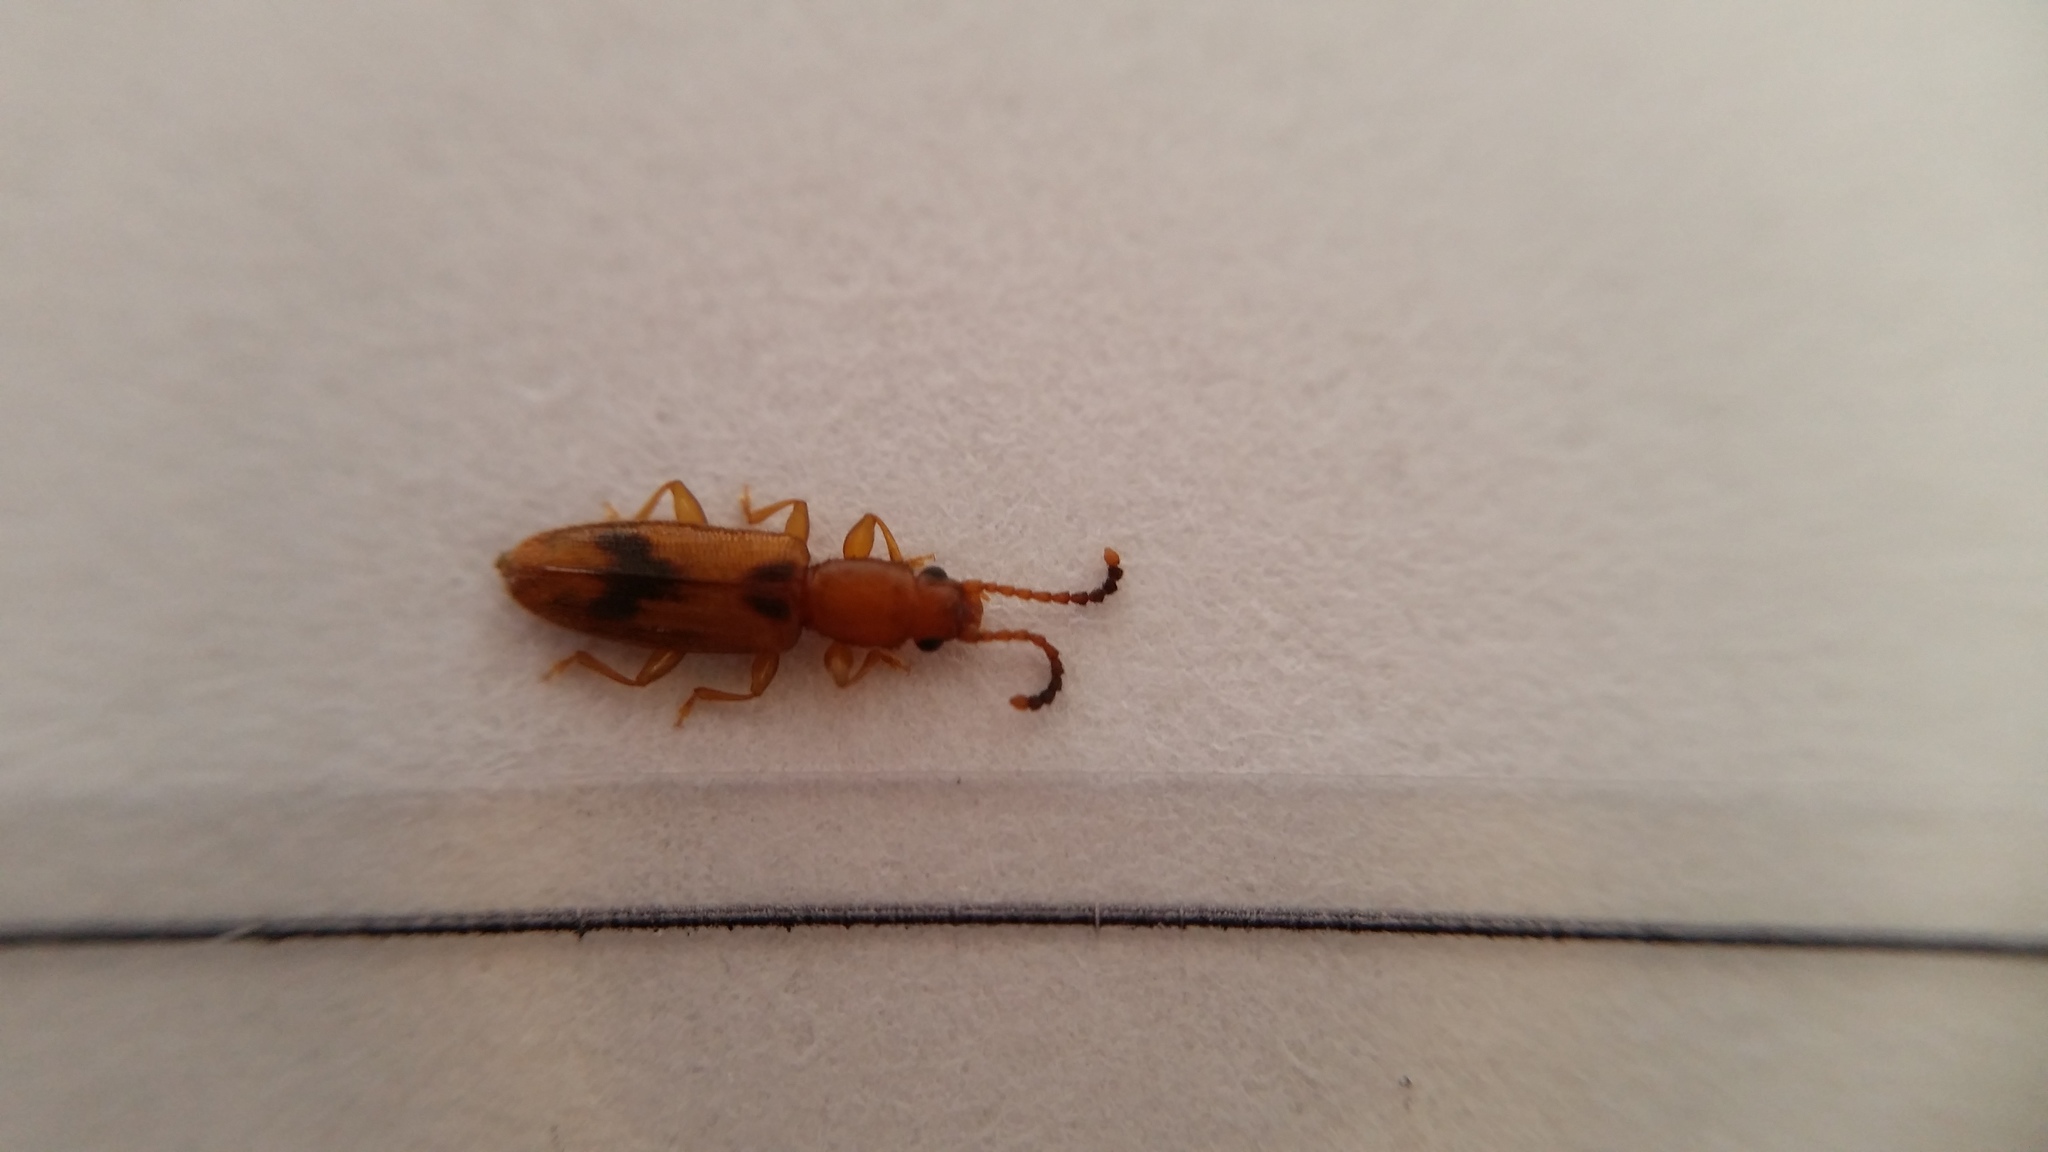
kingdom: Animalia
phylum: Arthropoda
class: Insecta
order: Coleoptera
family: Silvanidae
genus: Cryptamorpha
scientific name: Cryptamorpha desjardinsi
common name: Cryptamorpha
